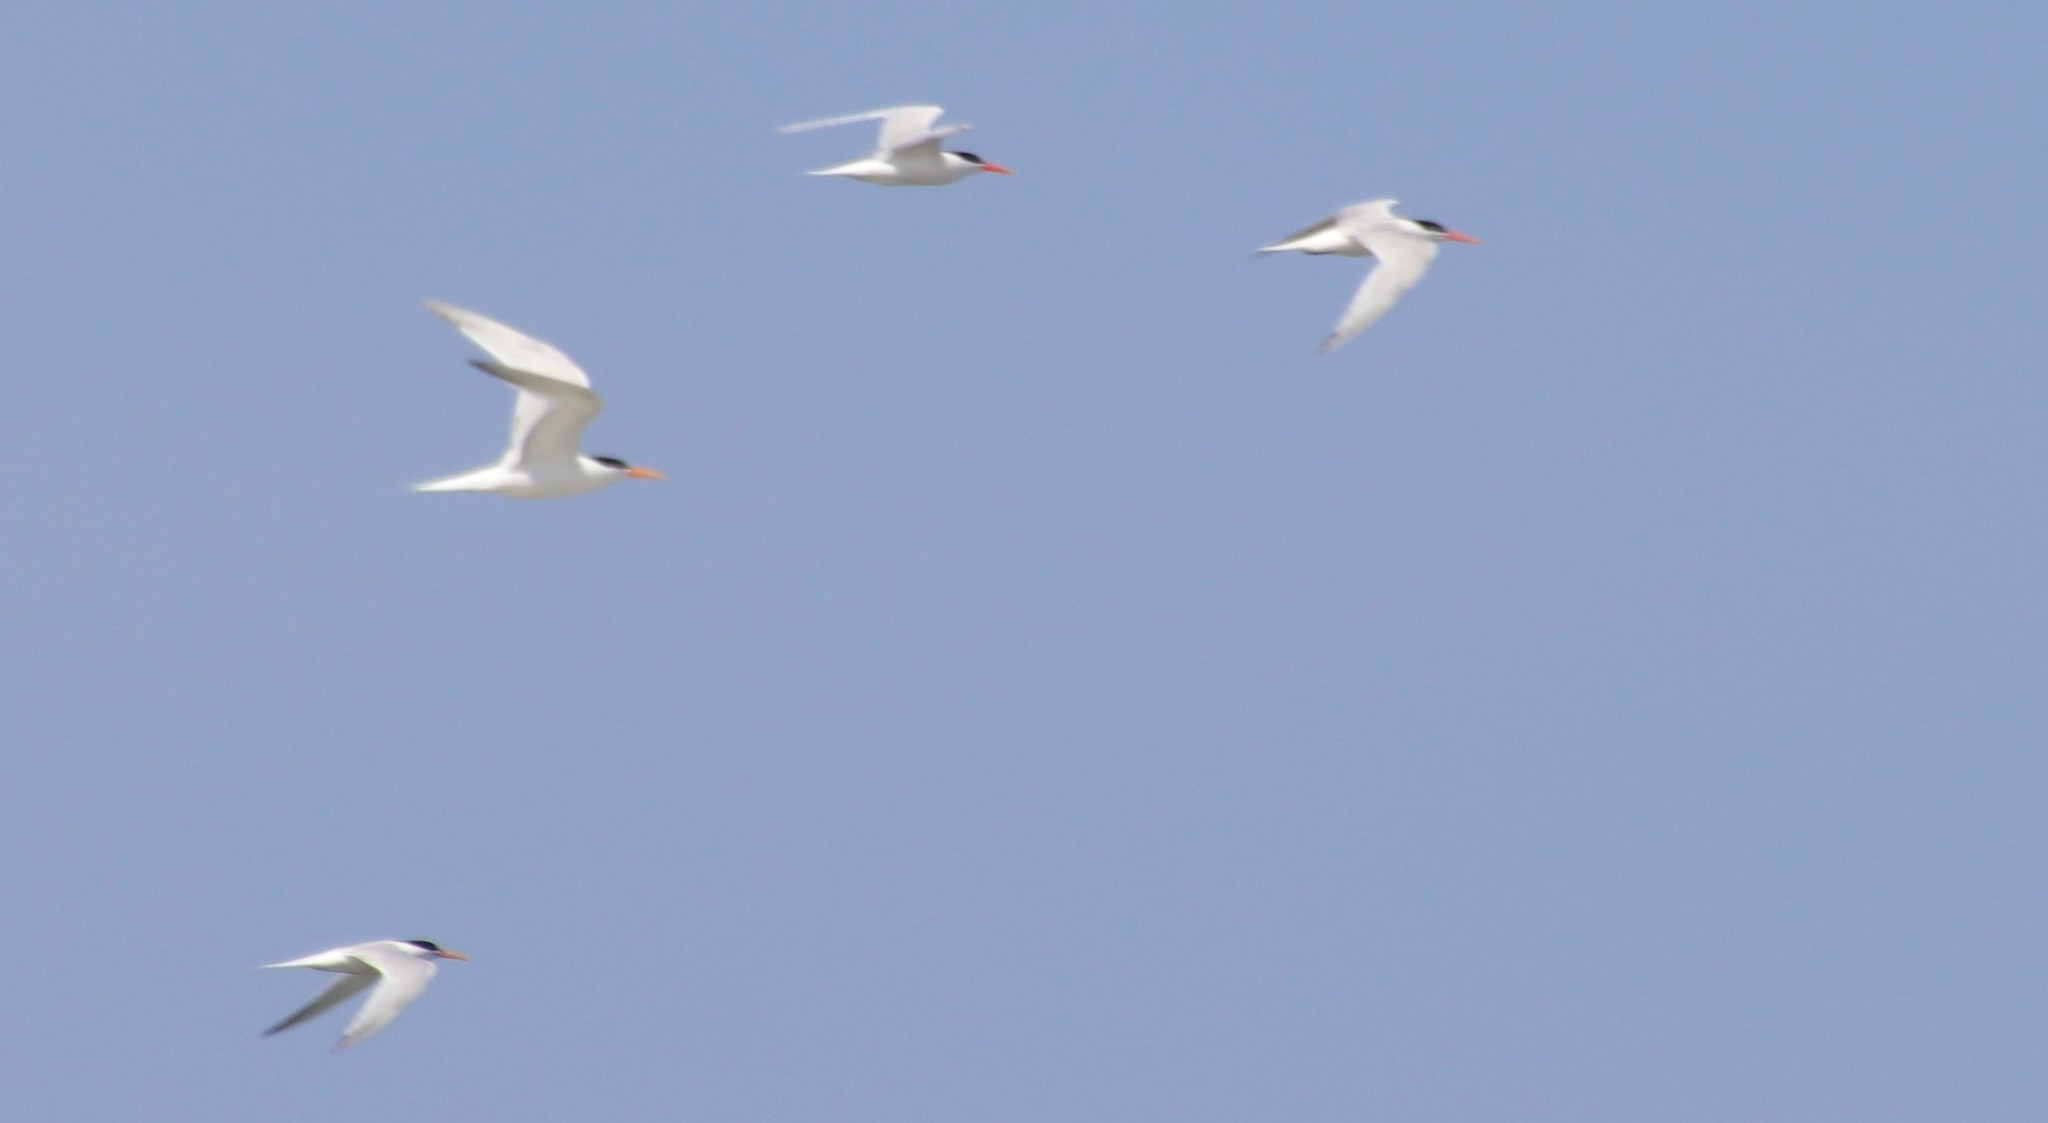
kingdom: Animalia
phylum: Chordata
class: Aves
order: Charadriiformes
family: Laridae
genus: Thalasseus
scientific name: Thalasseus elegans
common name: Elegant tern
